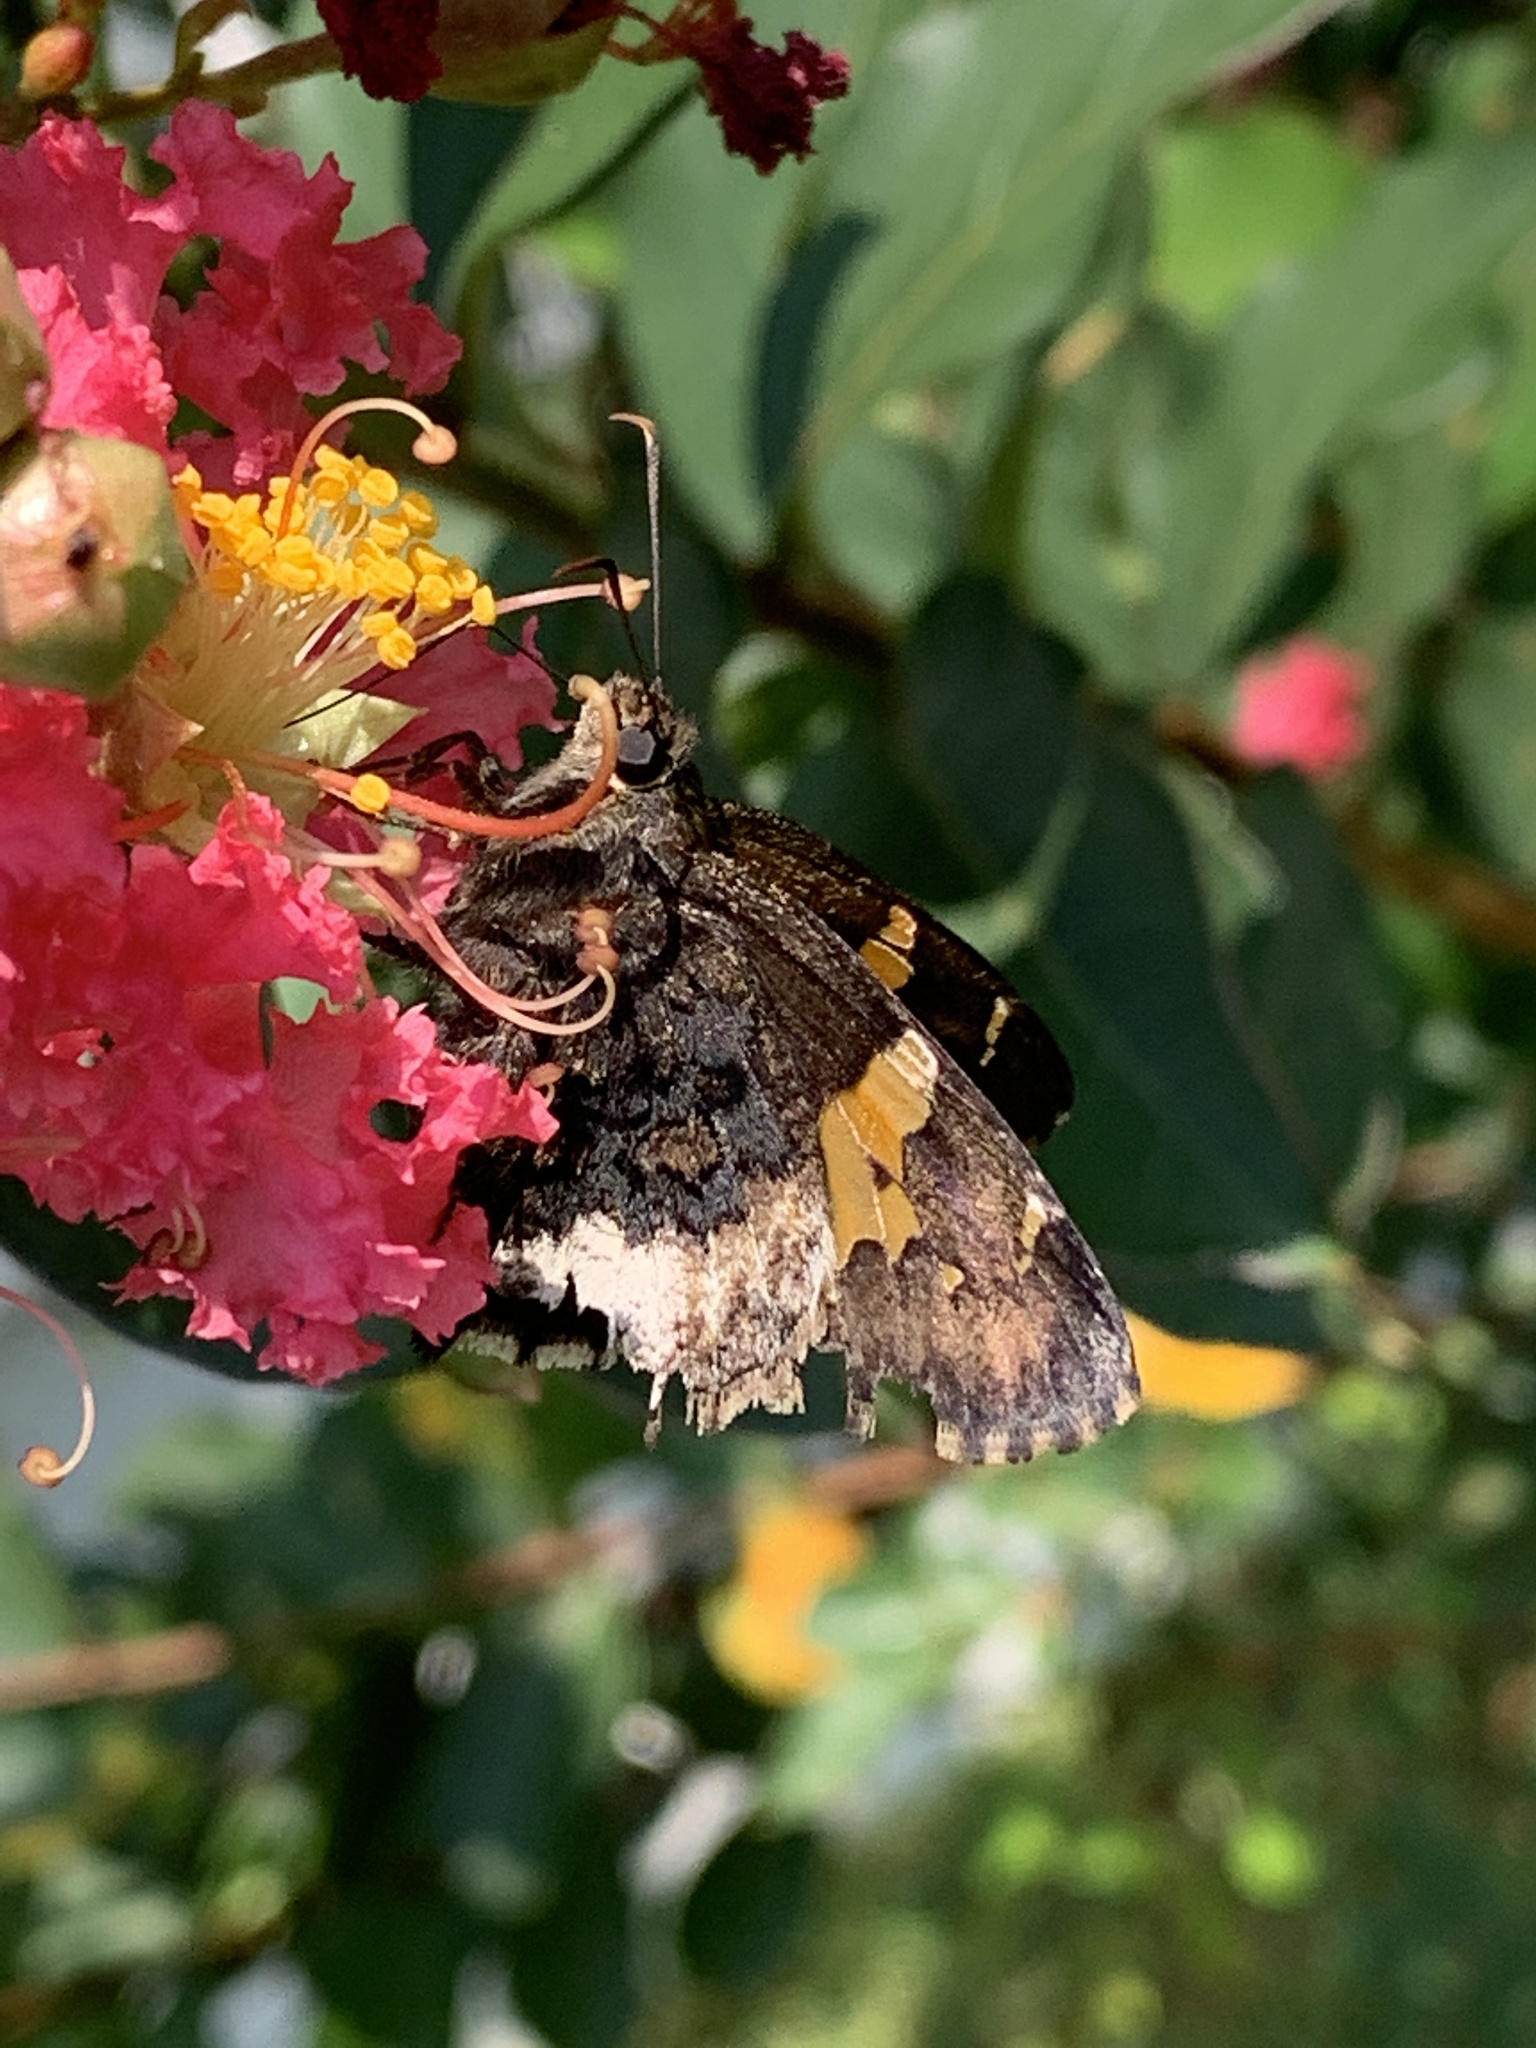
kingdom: Animalia
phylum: Arthropoda
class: Insecta
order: Lepidoptera
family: Hesperiidae
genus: Thorybes
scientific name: Thorybes lyciades
